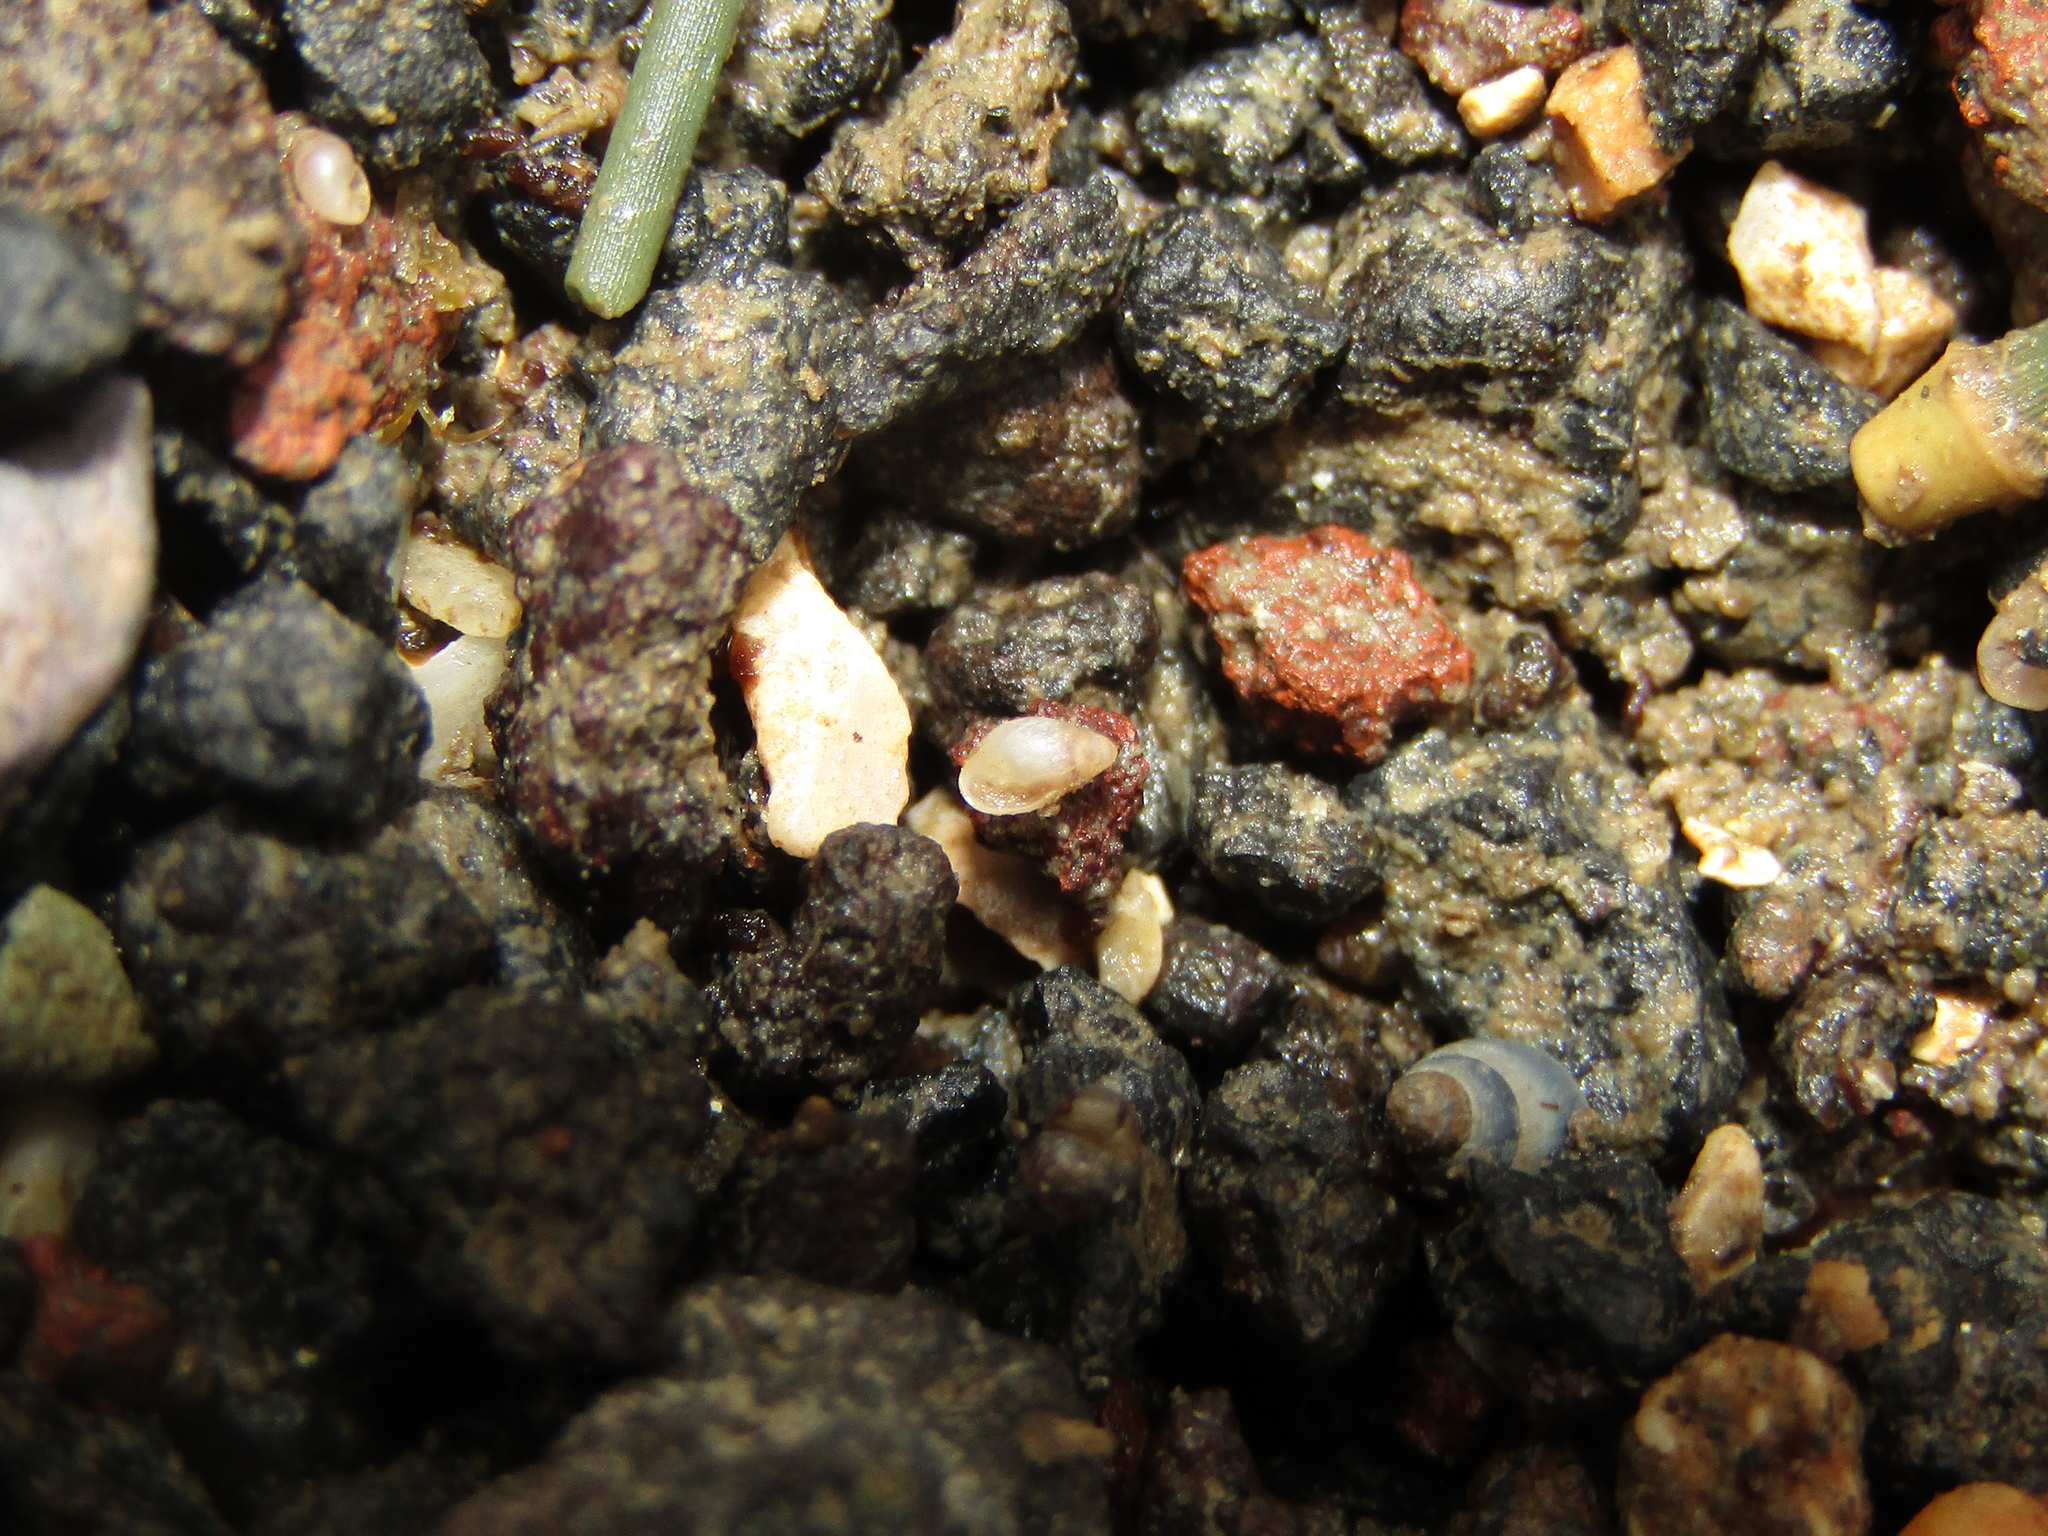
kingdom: Animalia
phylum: Mollusca
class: Gastropoda
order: Ellobiida
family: Ellobiidae
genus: Leuconopsis
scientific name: Leuconopsis obsoleta
